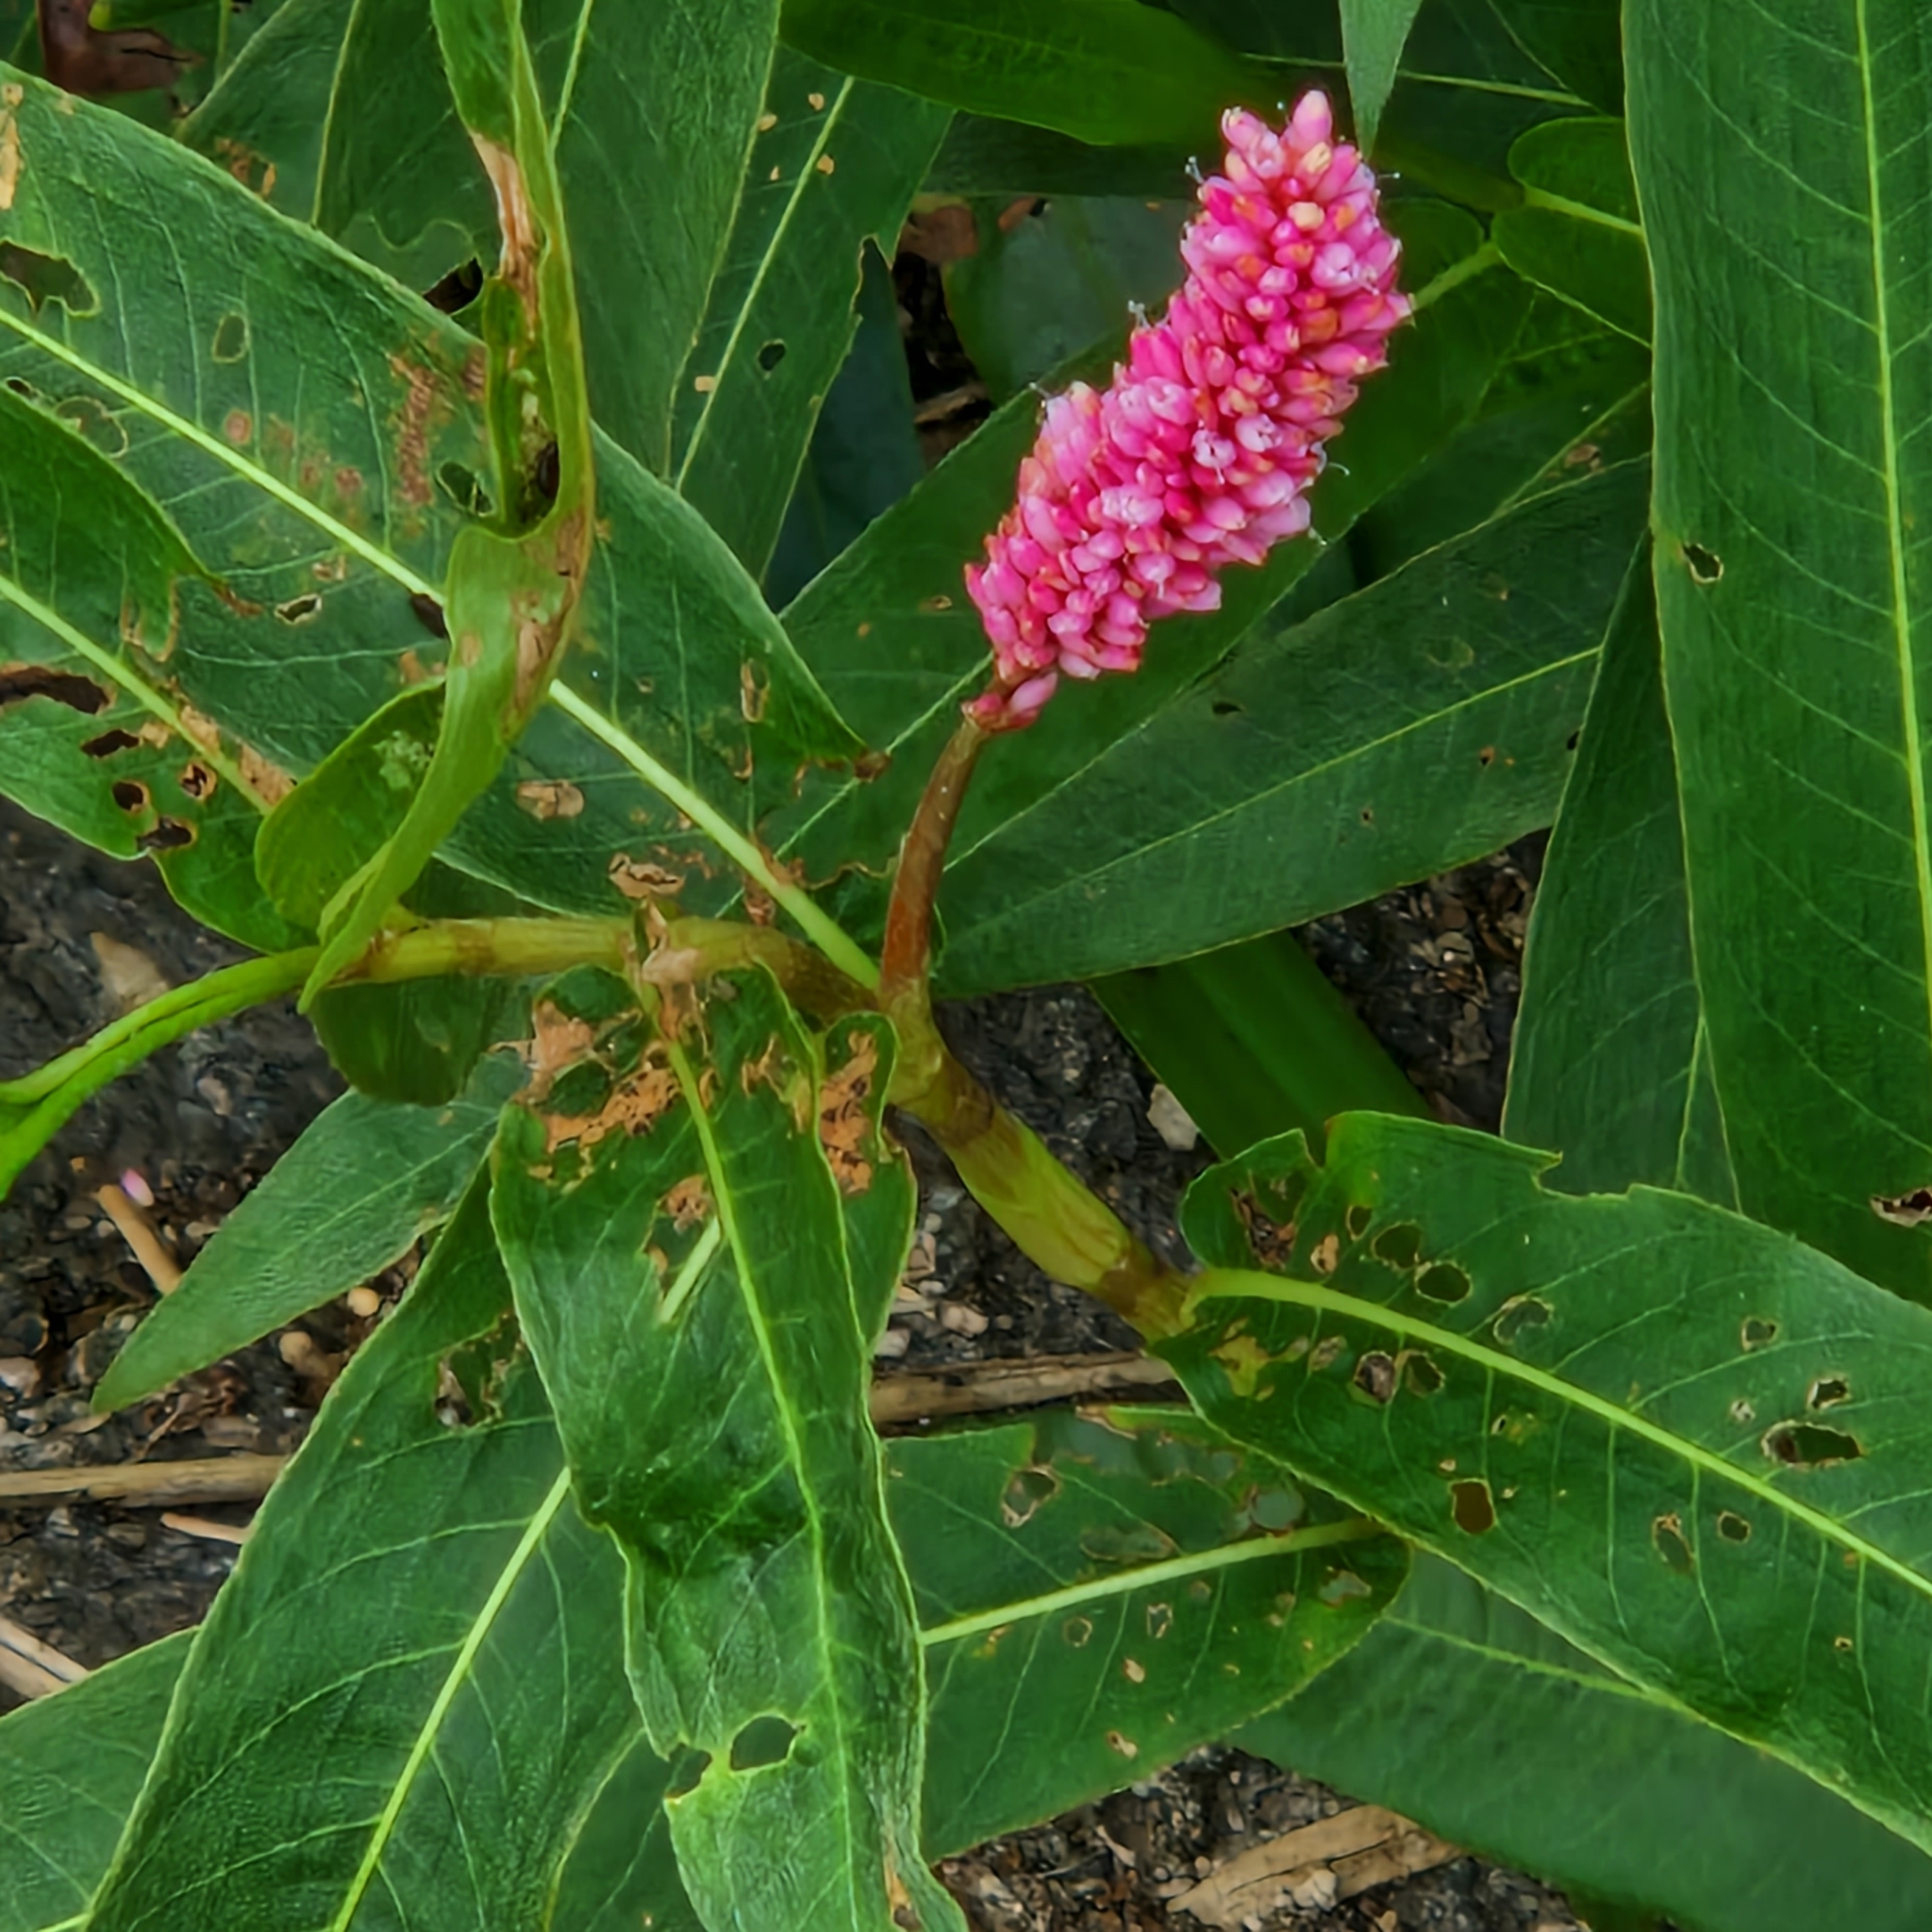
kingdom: Plantae
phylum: Tracheophyta
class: Magnoliopsida
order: Caryophyllales
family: Polygonaceae
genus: Persicaria
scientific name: Persicaria amphibia
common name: Amphibious bistort
